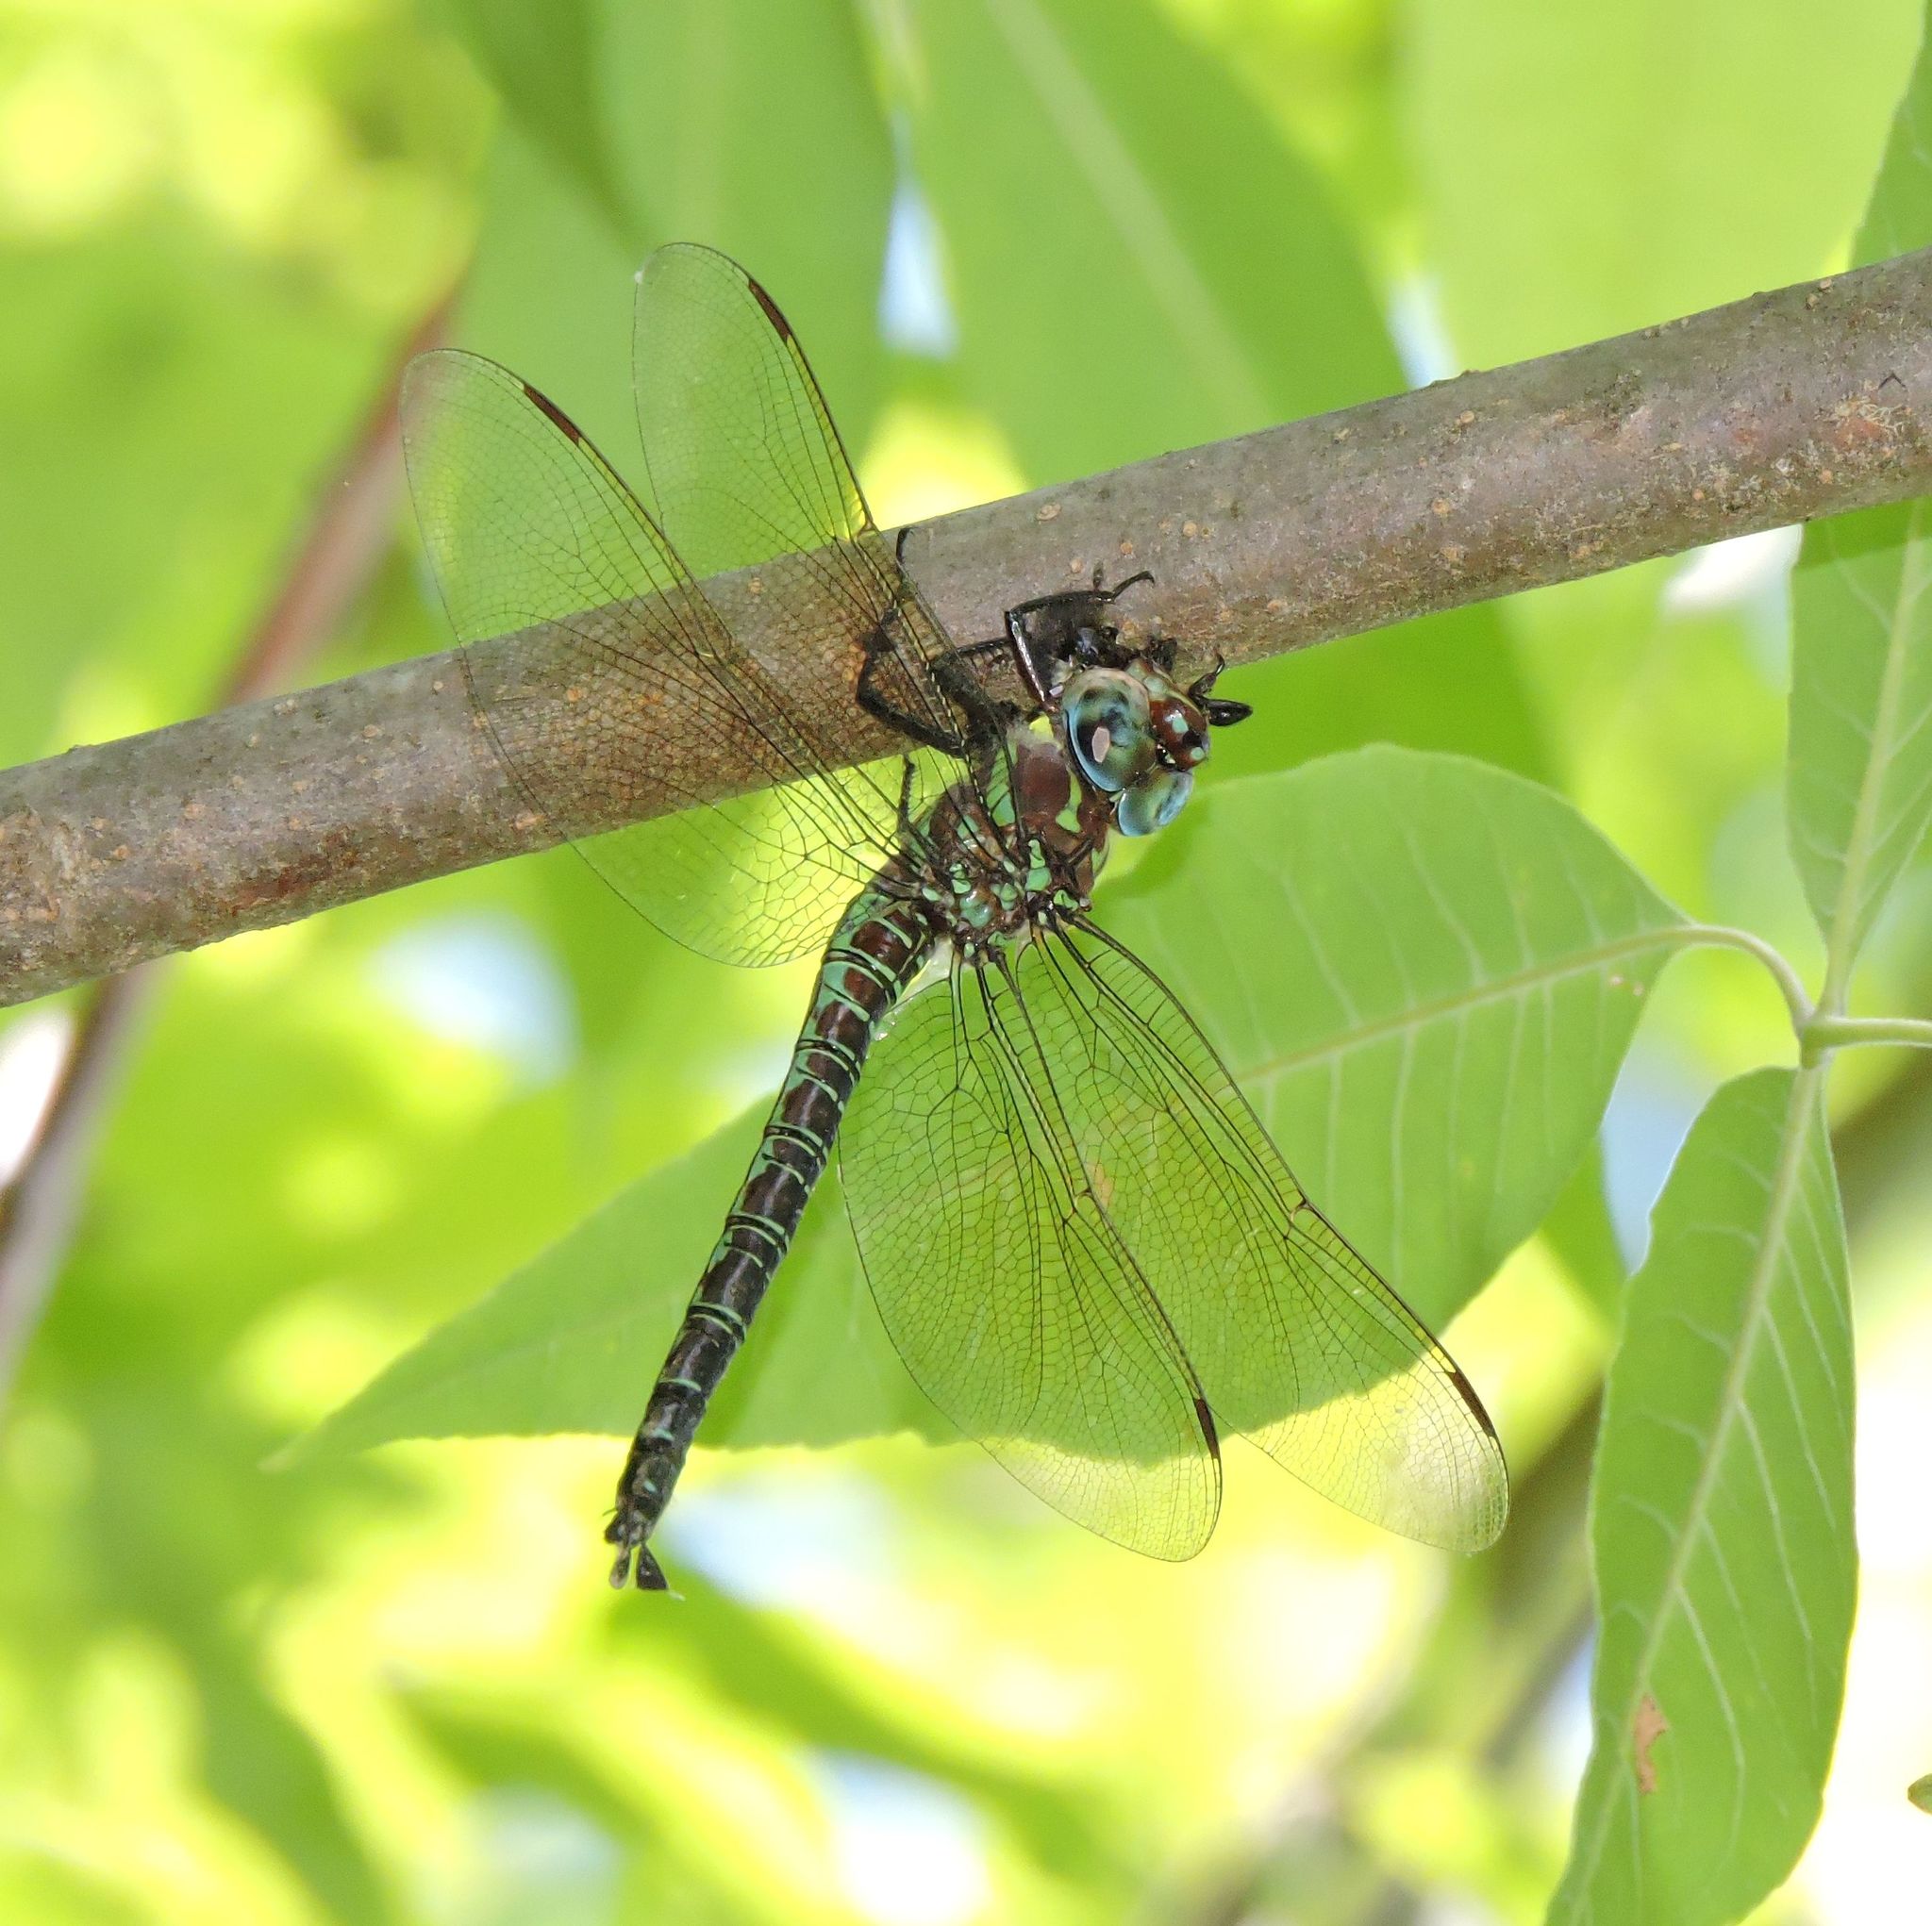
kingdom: Animalia
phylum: Arthropoda
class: Insecta
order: Odonata
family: Aeshnidae
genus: Epiaeschna
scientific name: Epiaeschna heros
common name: Swamp darner
